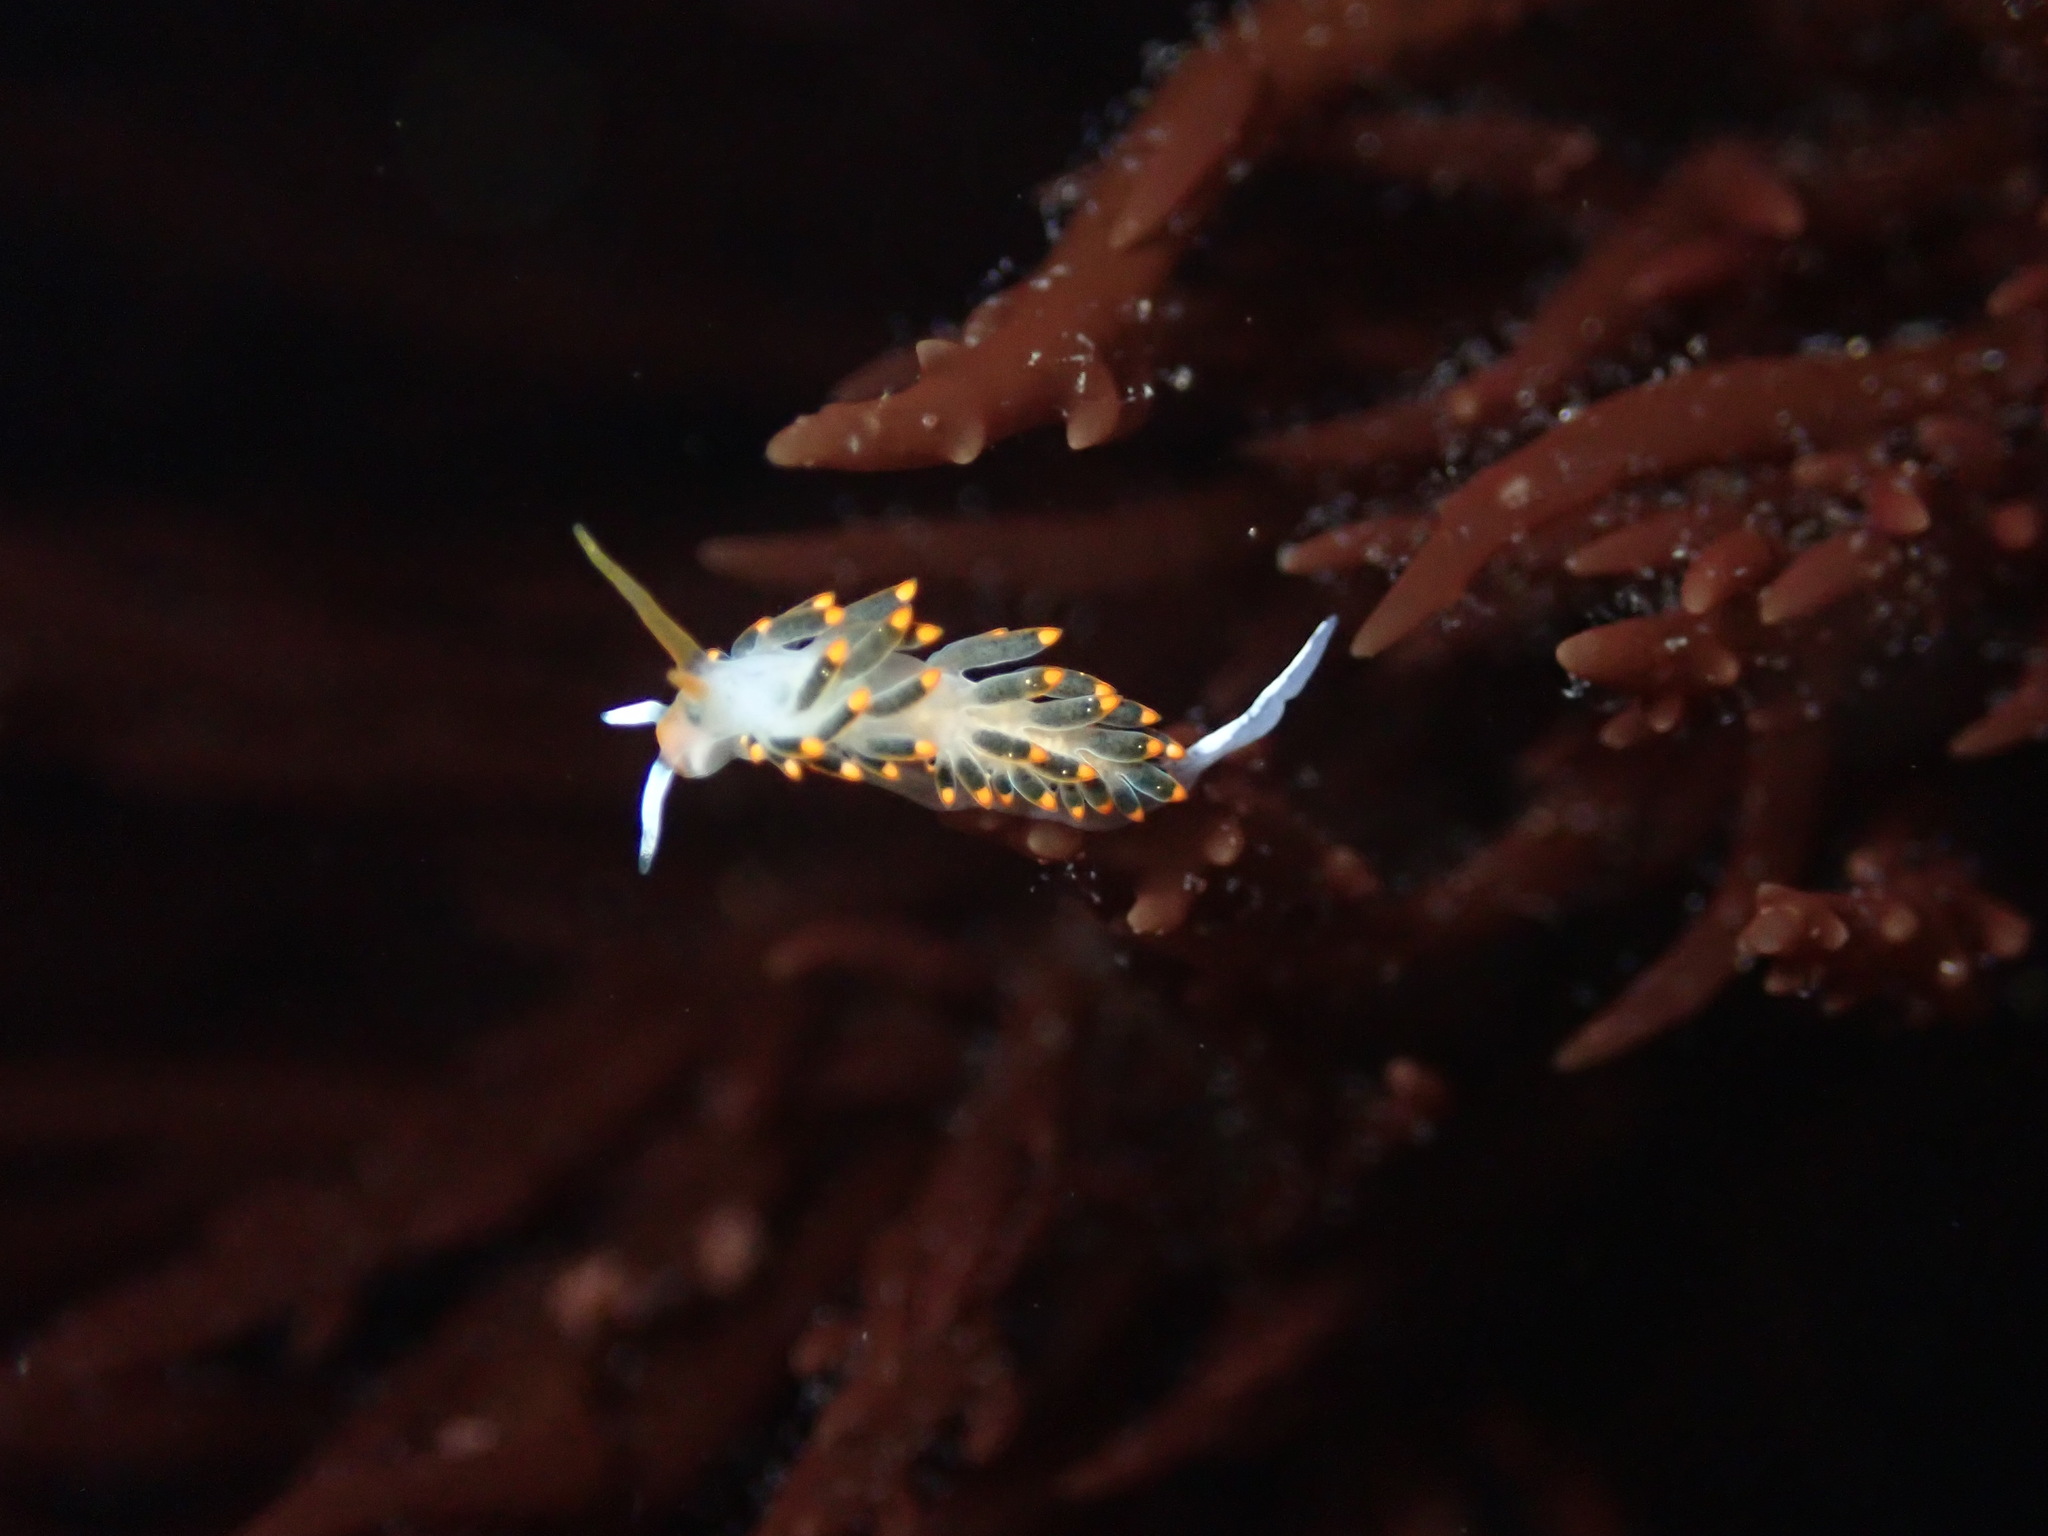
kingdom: Animalia
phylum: Mollusca
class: Gastropoda
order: Nudibranchia
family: Trinchesiidae
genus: Diaphoreolis
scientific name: Diaphoreolis lagunae
